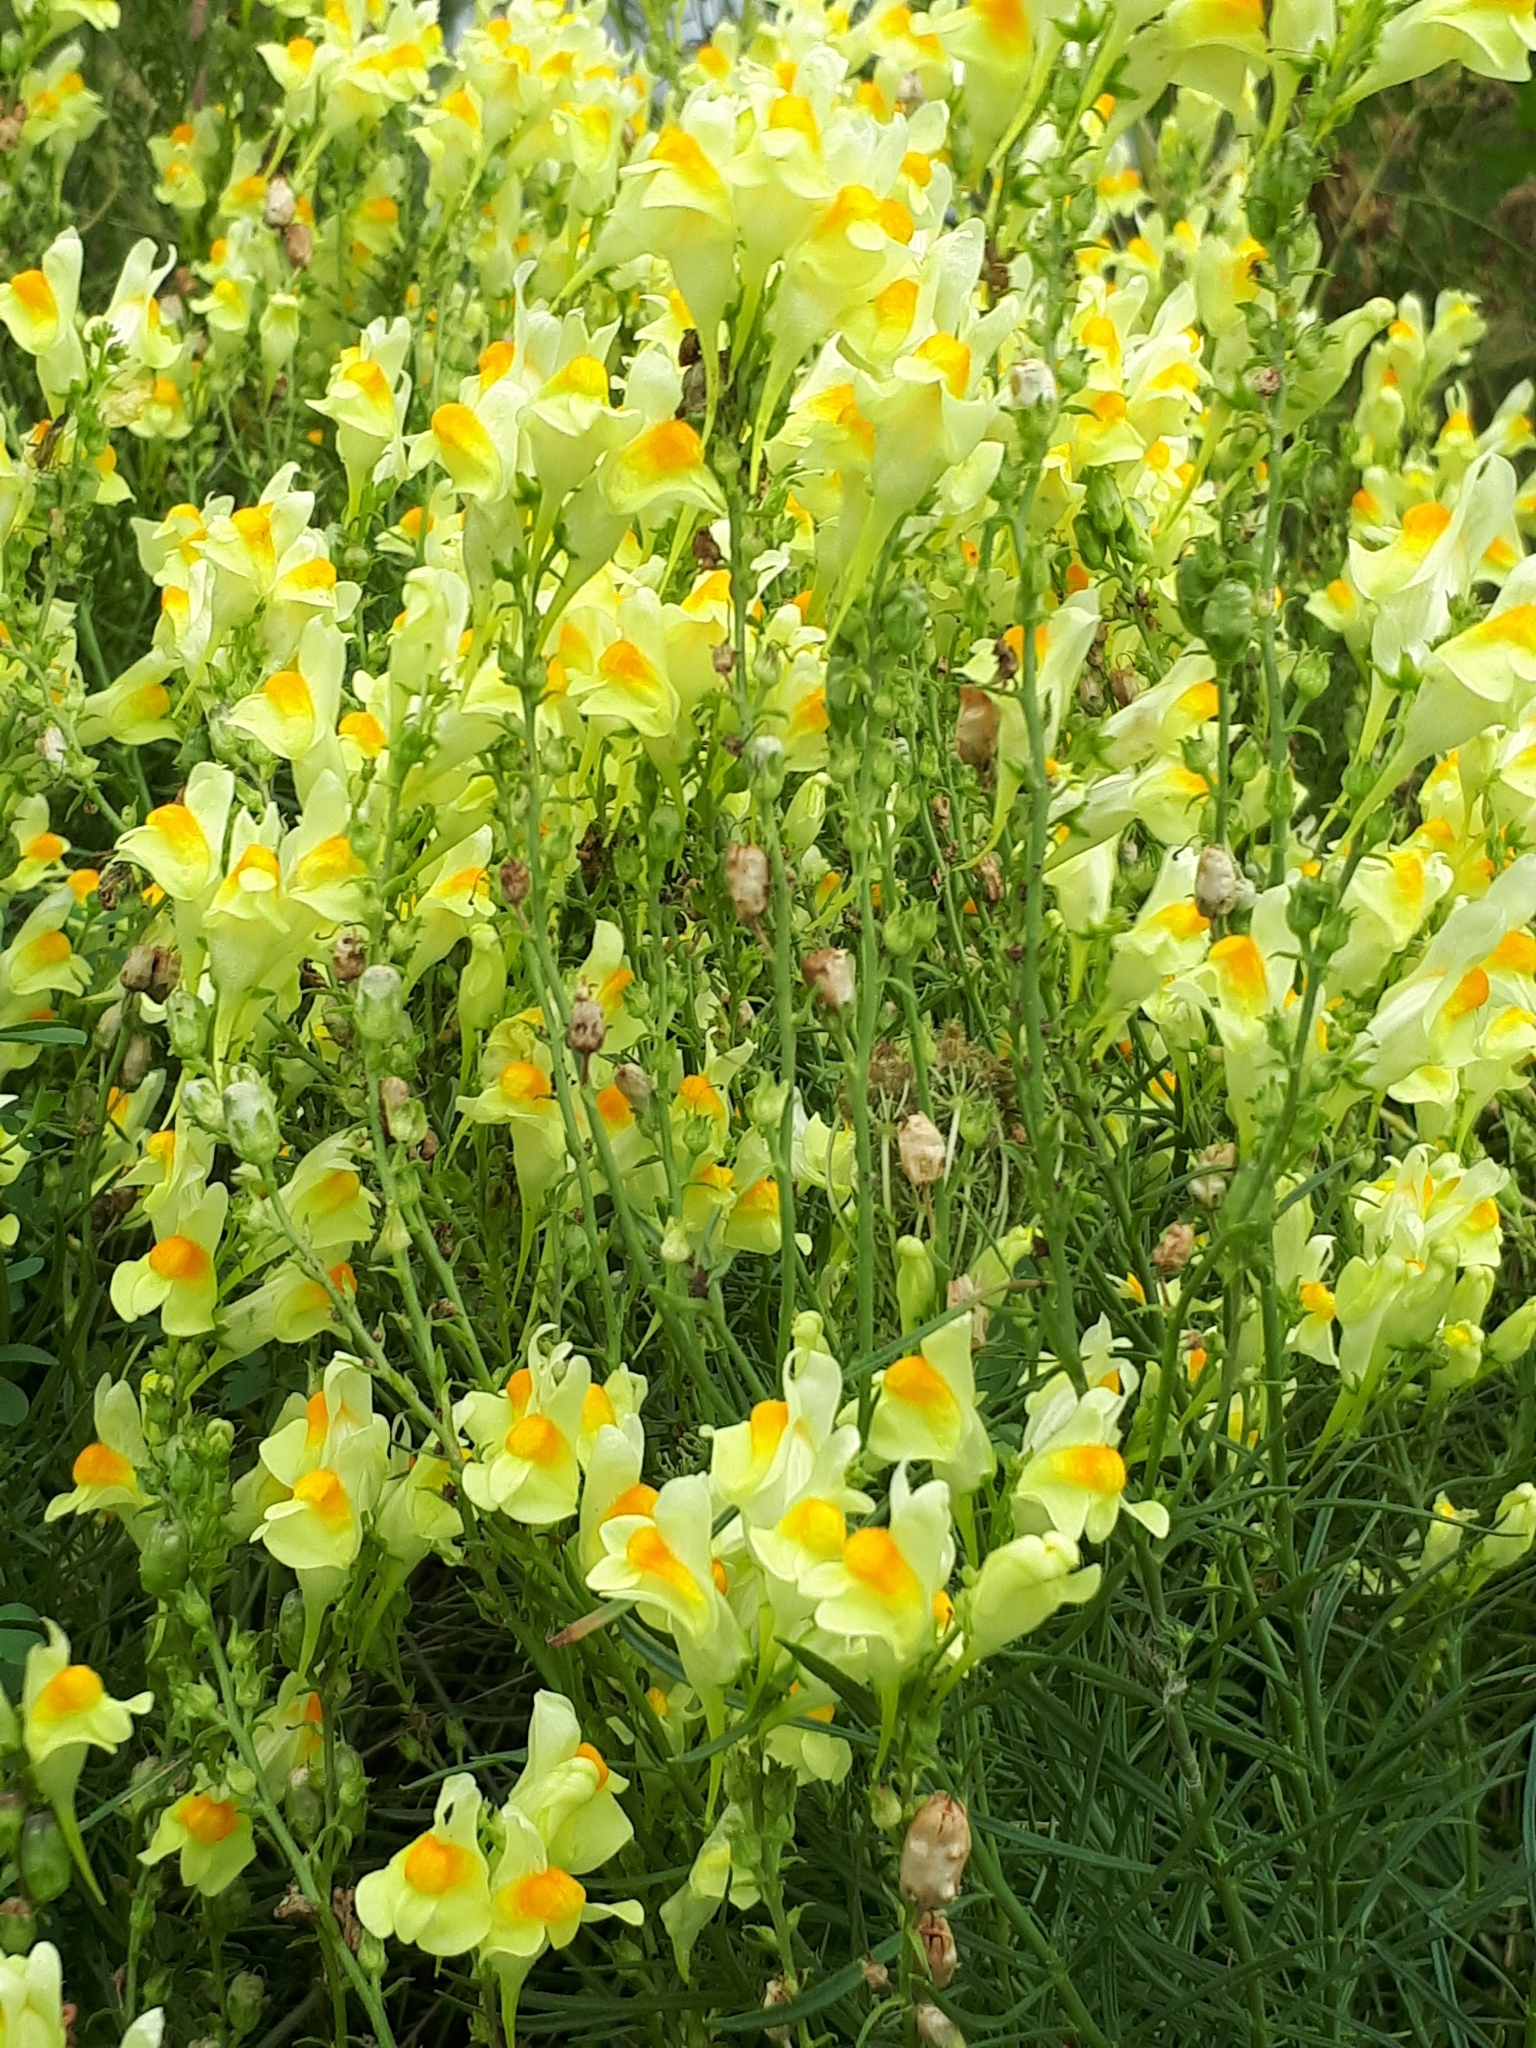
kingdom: Plantae
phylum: Tracheophyta
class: Magnoliopsida
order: Lamiales
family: Plantaginaceae
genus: Linaria
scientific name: Linaria vulgaris
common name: Butter and eggs
